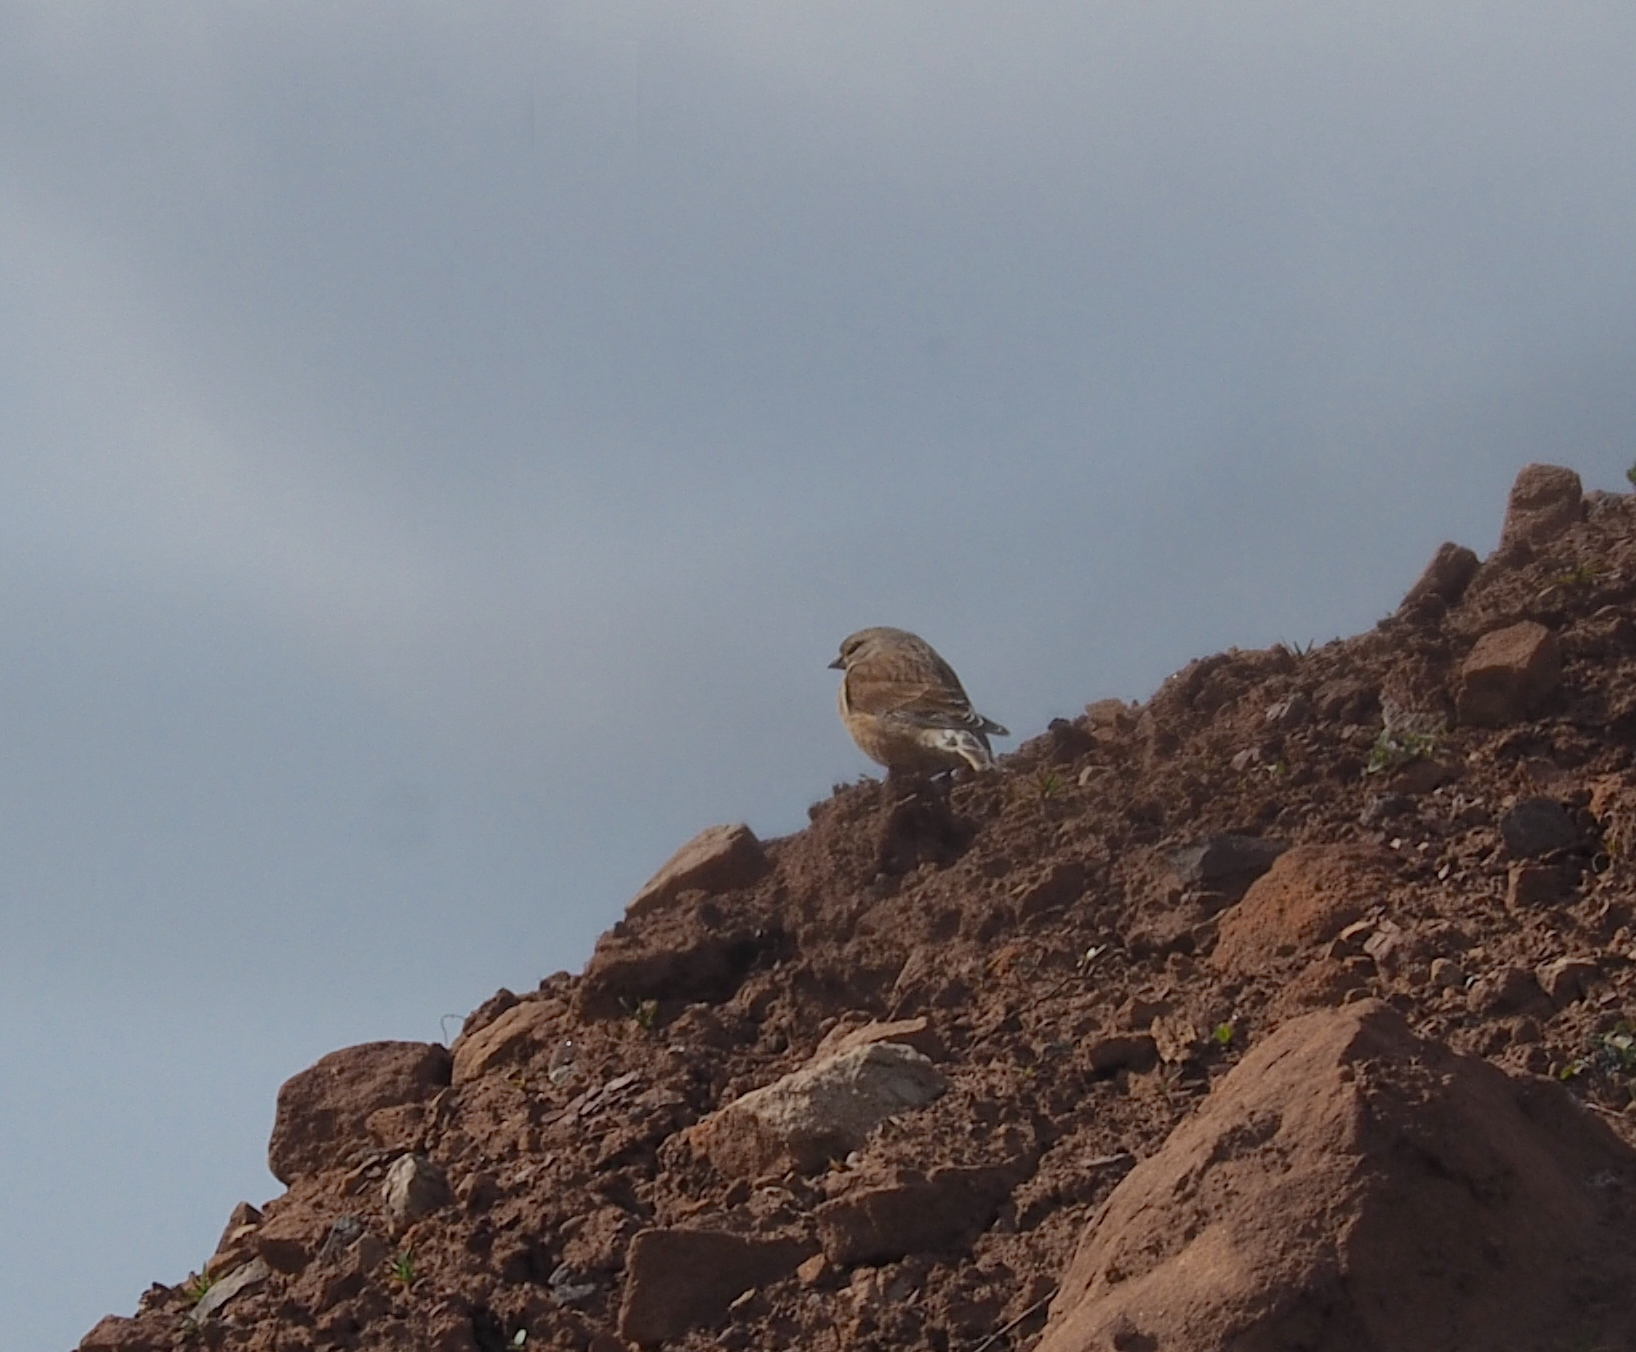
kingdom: Animalia
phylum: Chordata
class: Aves
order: Passeriformes
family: Fringillidae
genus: Linaria
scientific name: Linaria cannabina
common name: Common linnet
